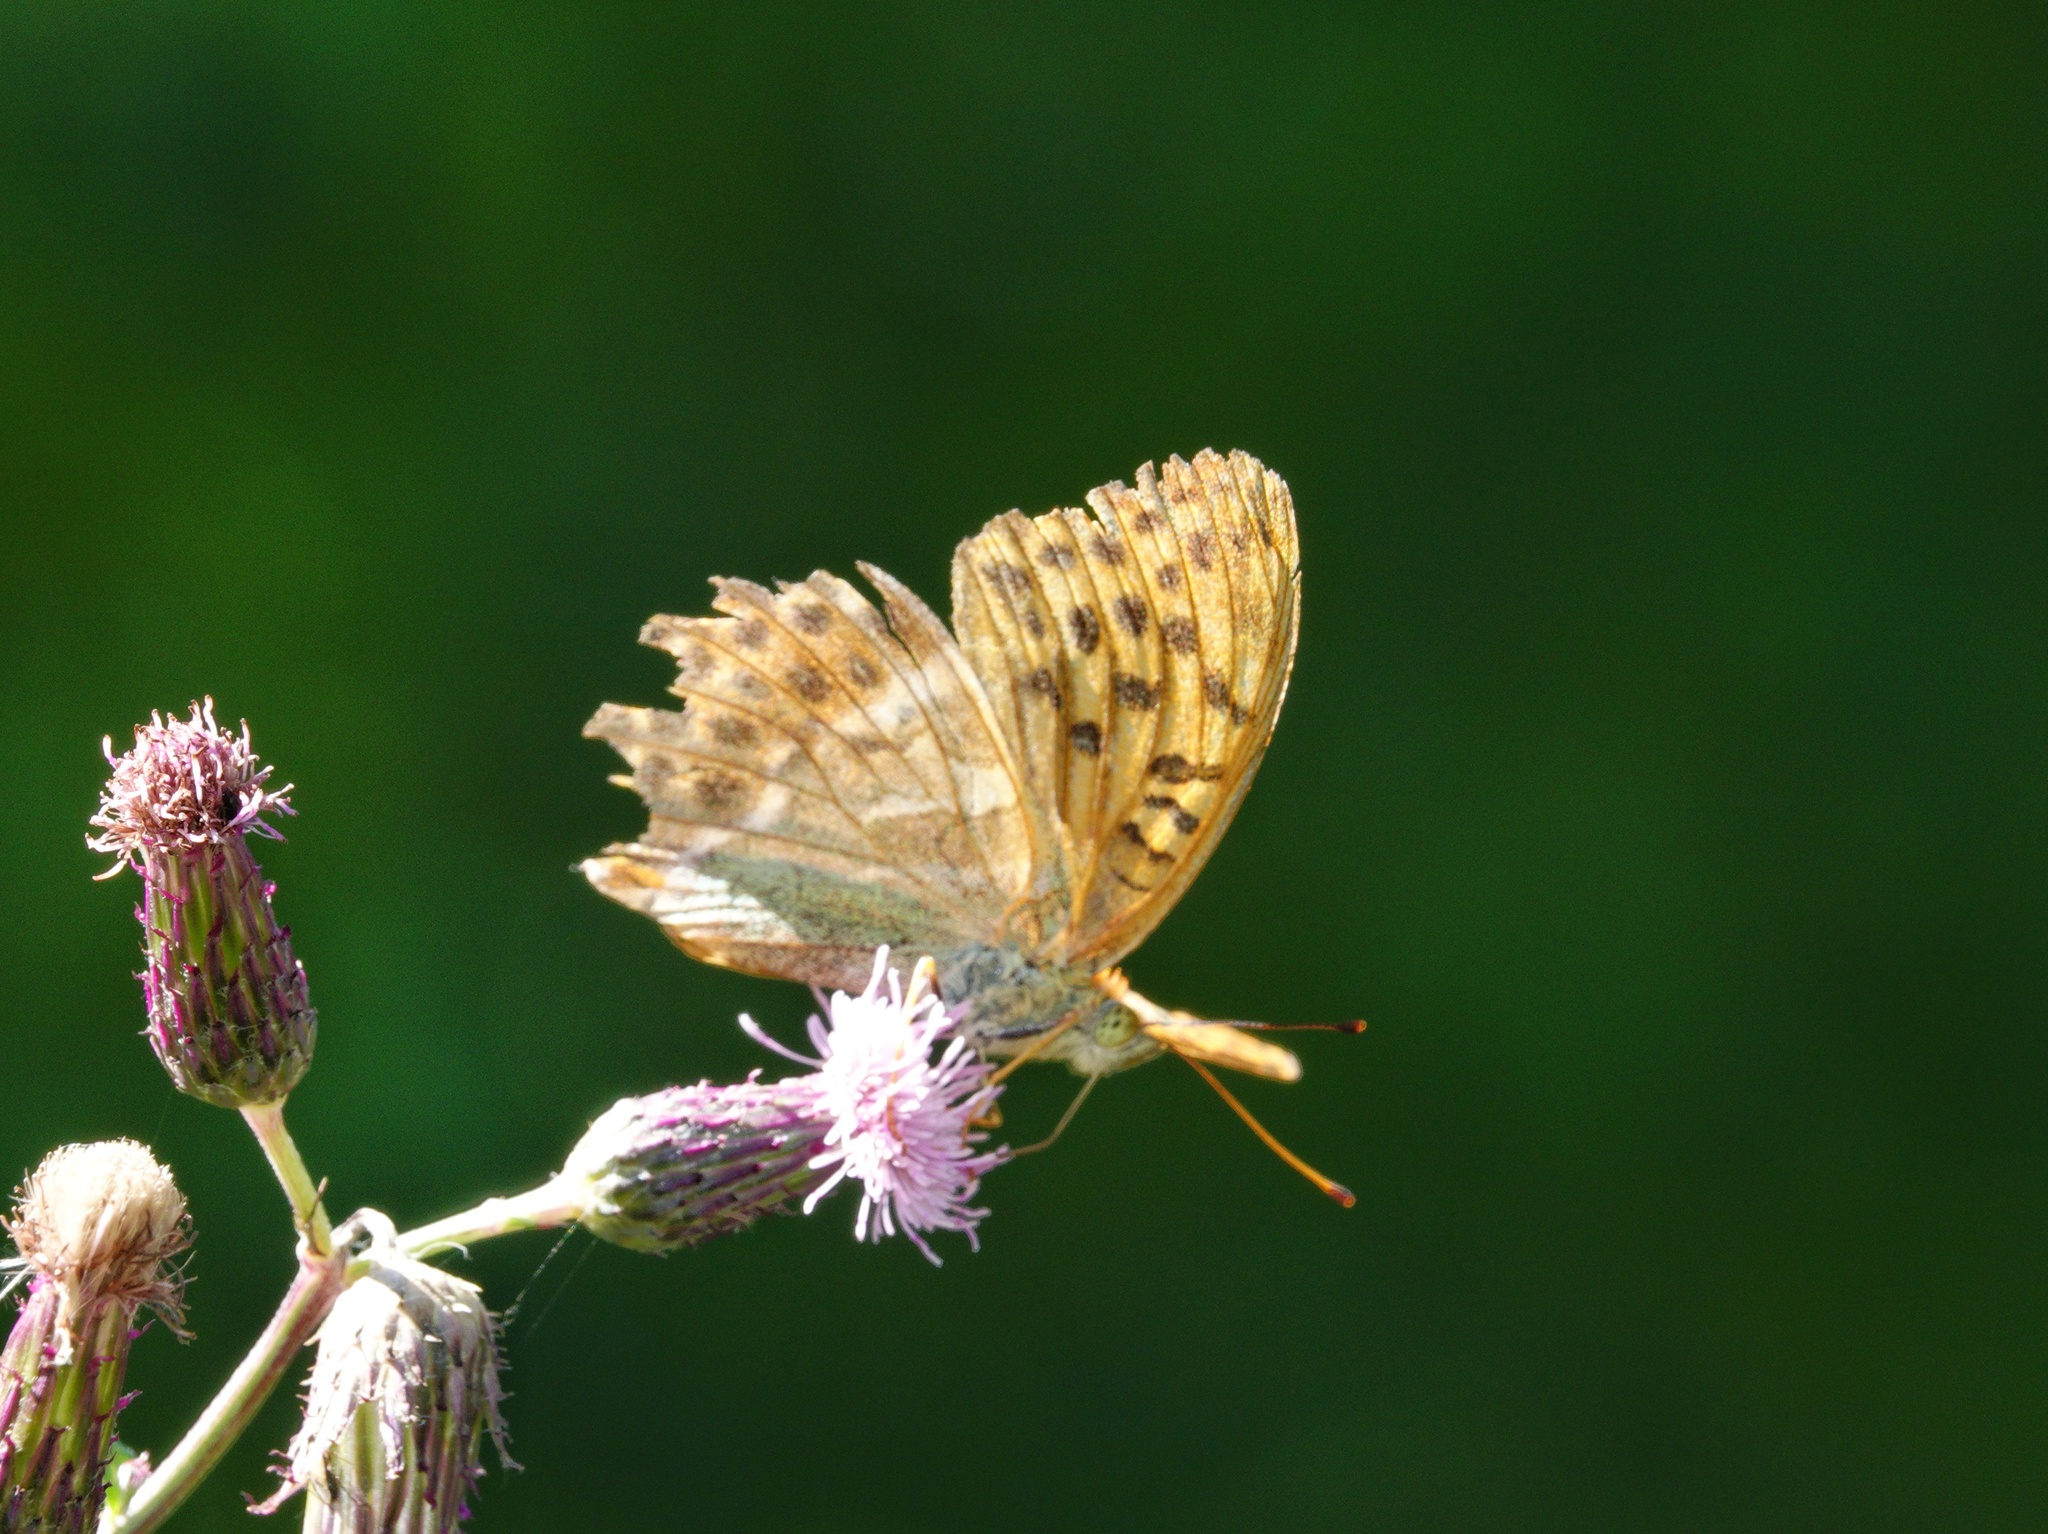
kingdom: Animalia
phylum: Arthropoda
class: Insecta
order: Lepidoptera
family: Nymphalidae
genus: Argynnis
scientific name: Argynnis paphia
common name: Silver-washed fritillary
